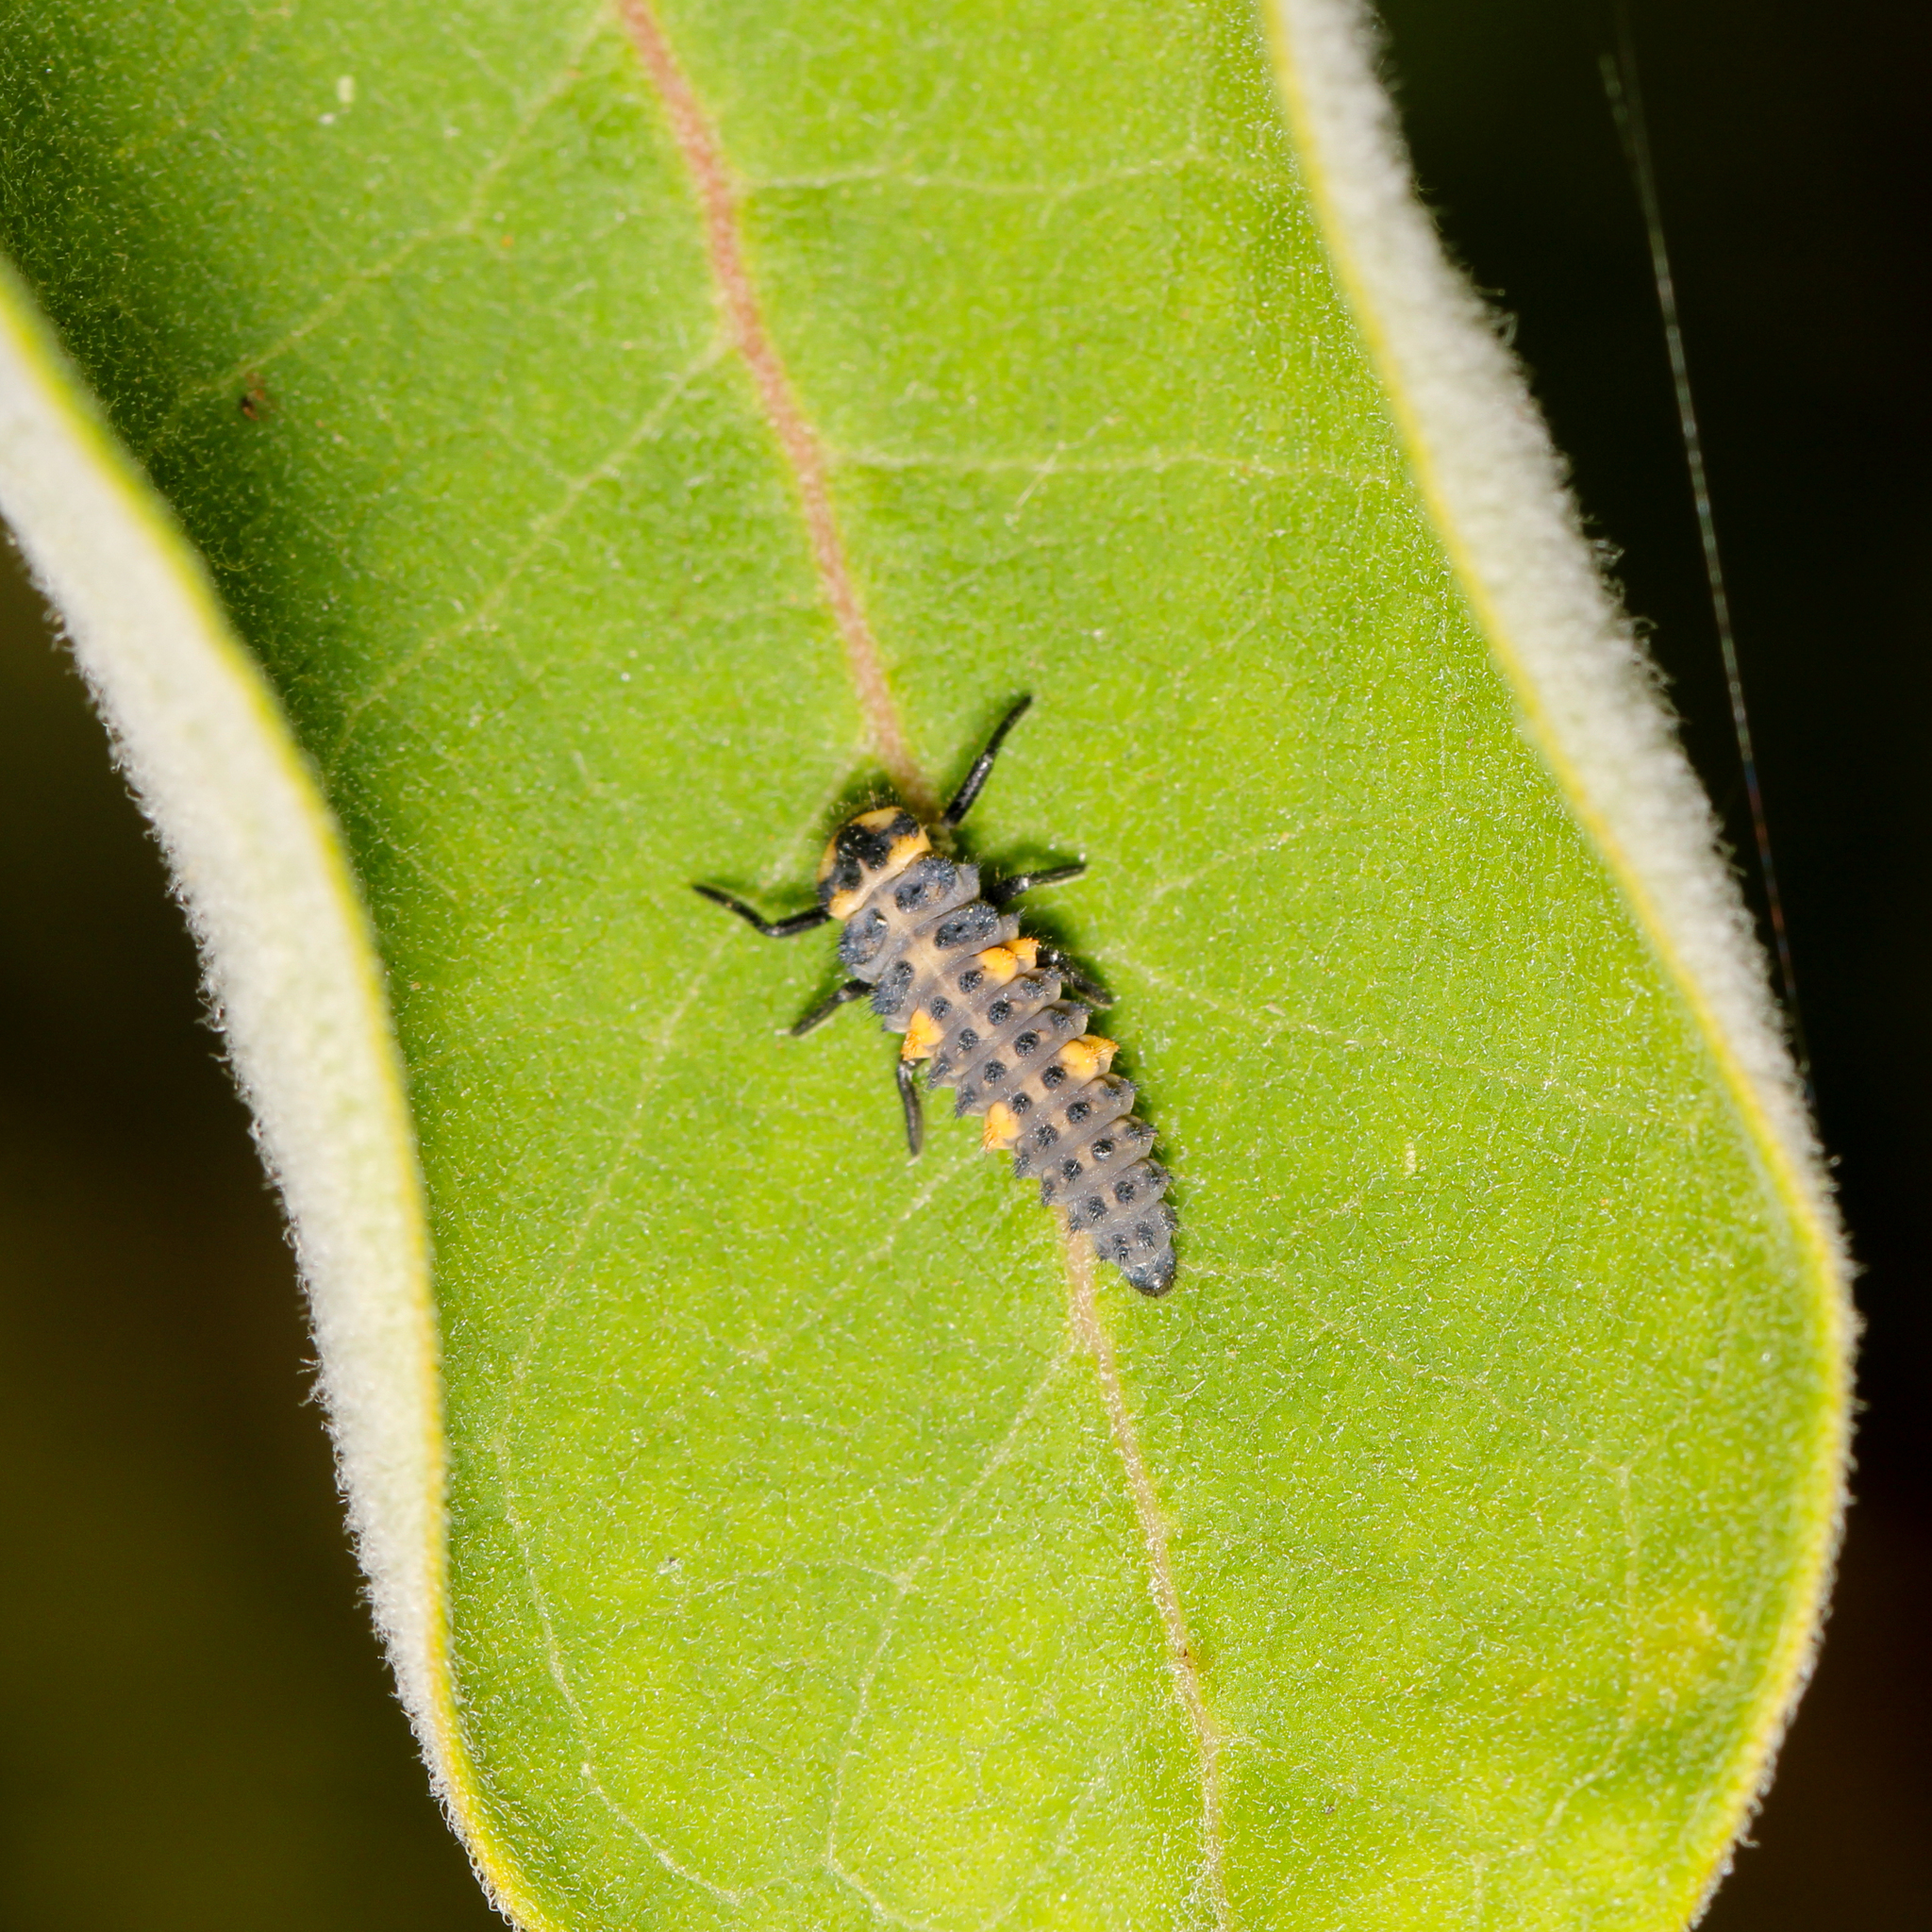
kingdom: Animalia
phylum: Arthropoda
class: Insecta
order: Coleoptera
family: Coccinellidae
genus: Coccinella
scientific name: Coccinella septempunctata
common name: Sevenspotted lady beetle
